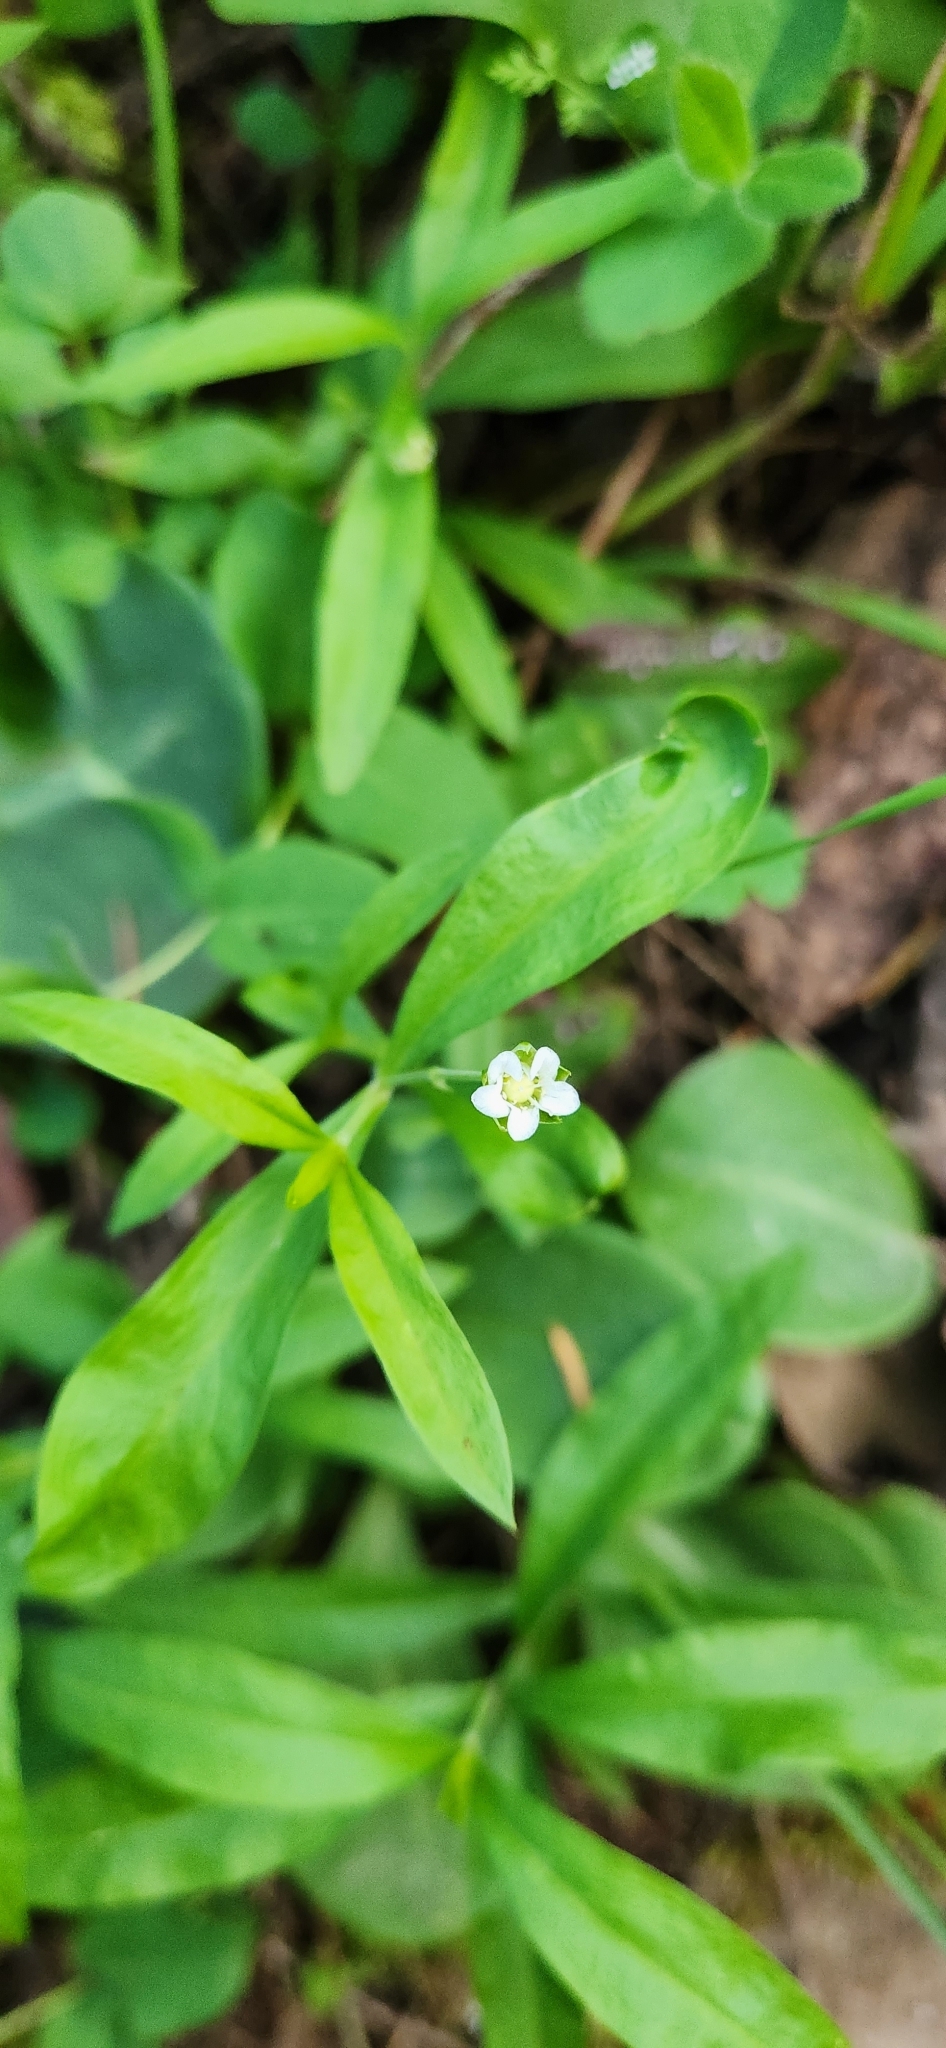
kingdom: Plantae
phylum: Tracheophyta
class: Magnoliopsida
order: Caryophyllales
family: Caryophyllaceae
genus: Moehringia
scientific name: Moehringia macrophylla
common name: Big-leaf sandwort
